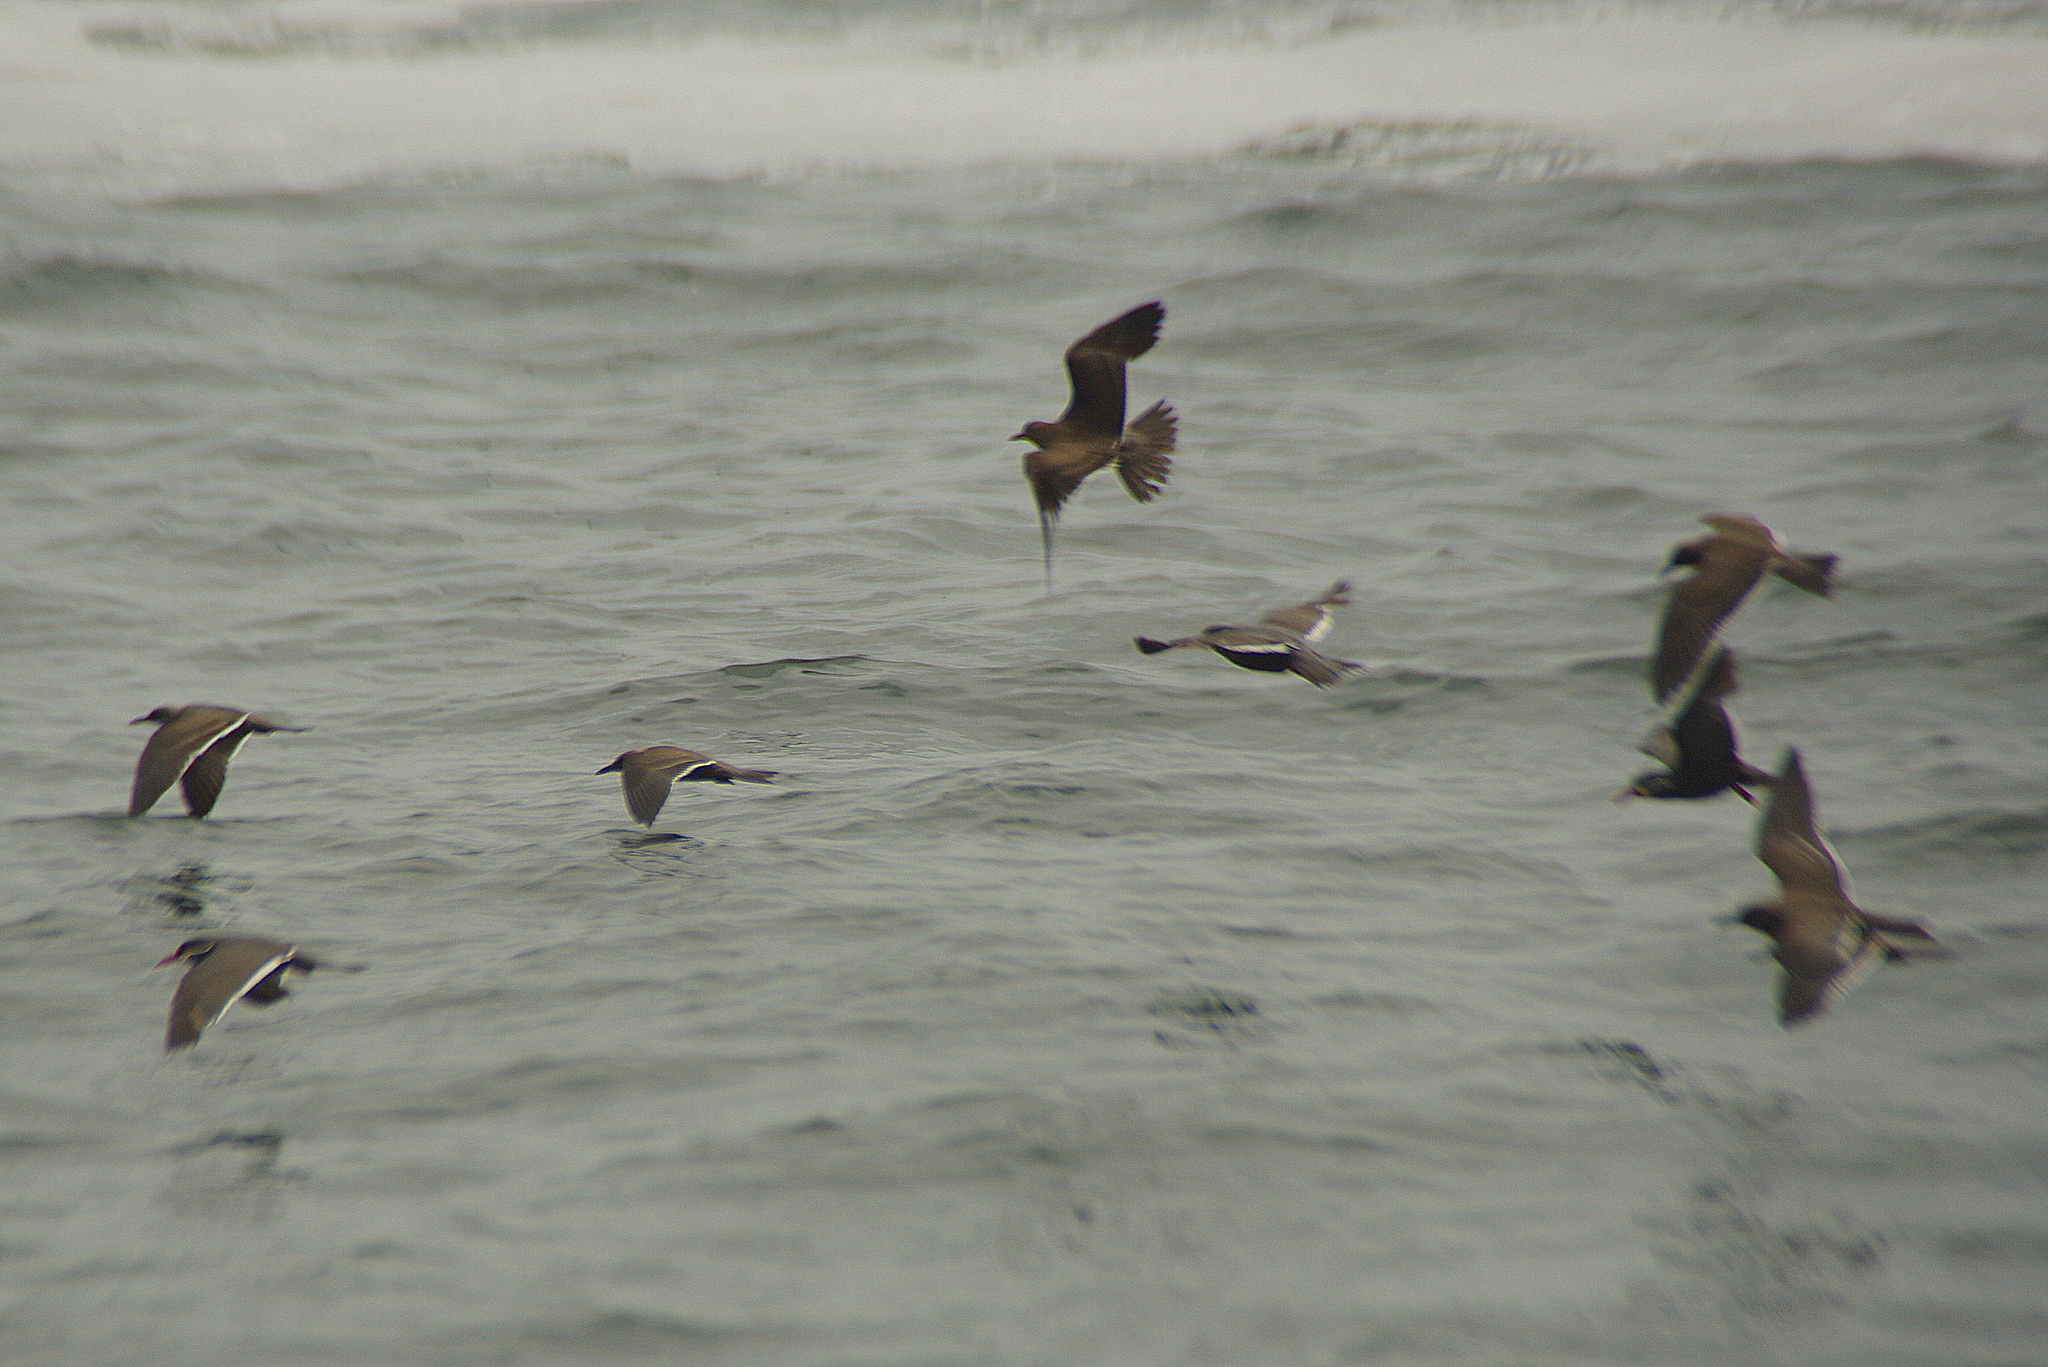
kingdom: Animalia
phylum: Chordata
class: Aves
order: Charadriiformes
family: Laridae
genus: Larosterna
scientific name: Larosterna inca
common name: Inca tern
